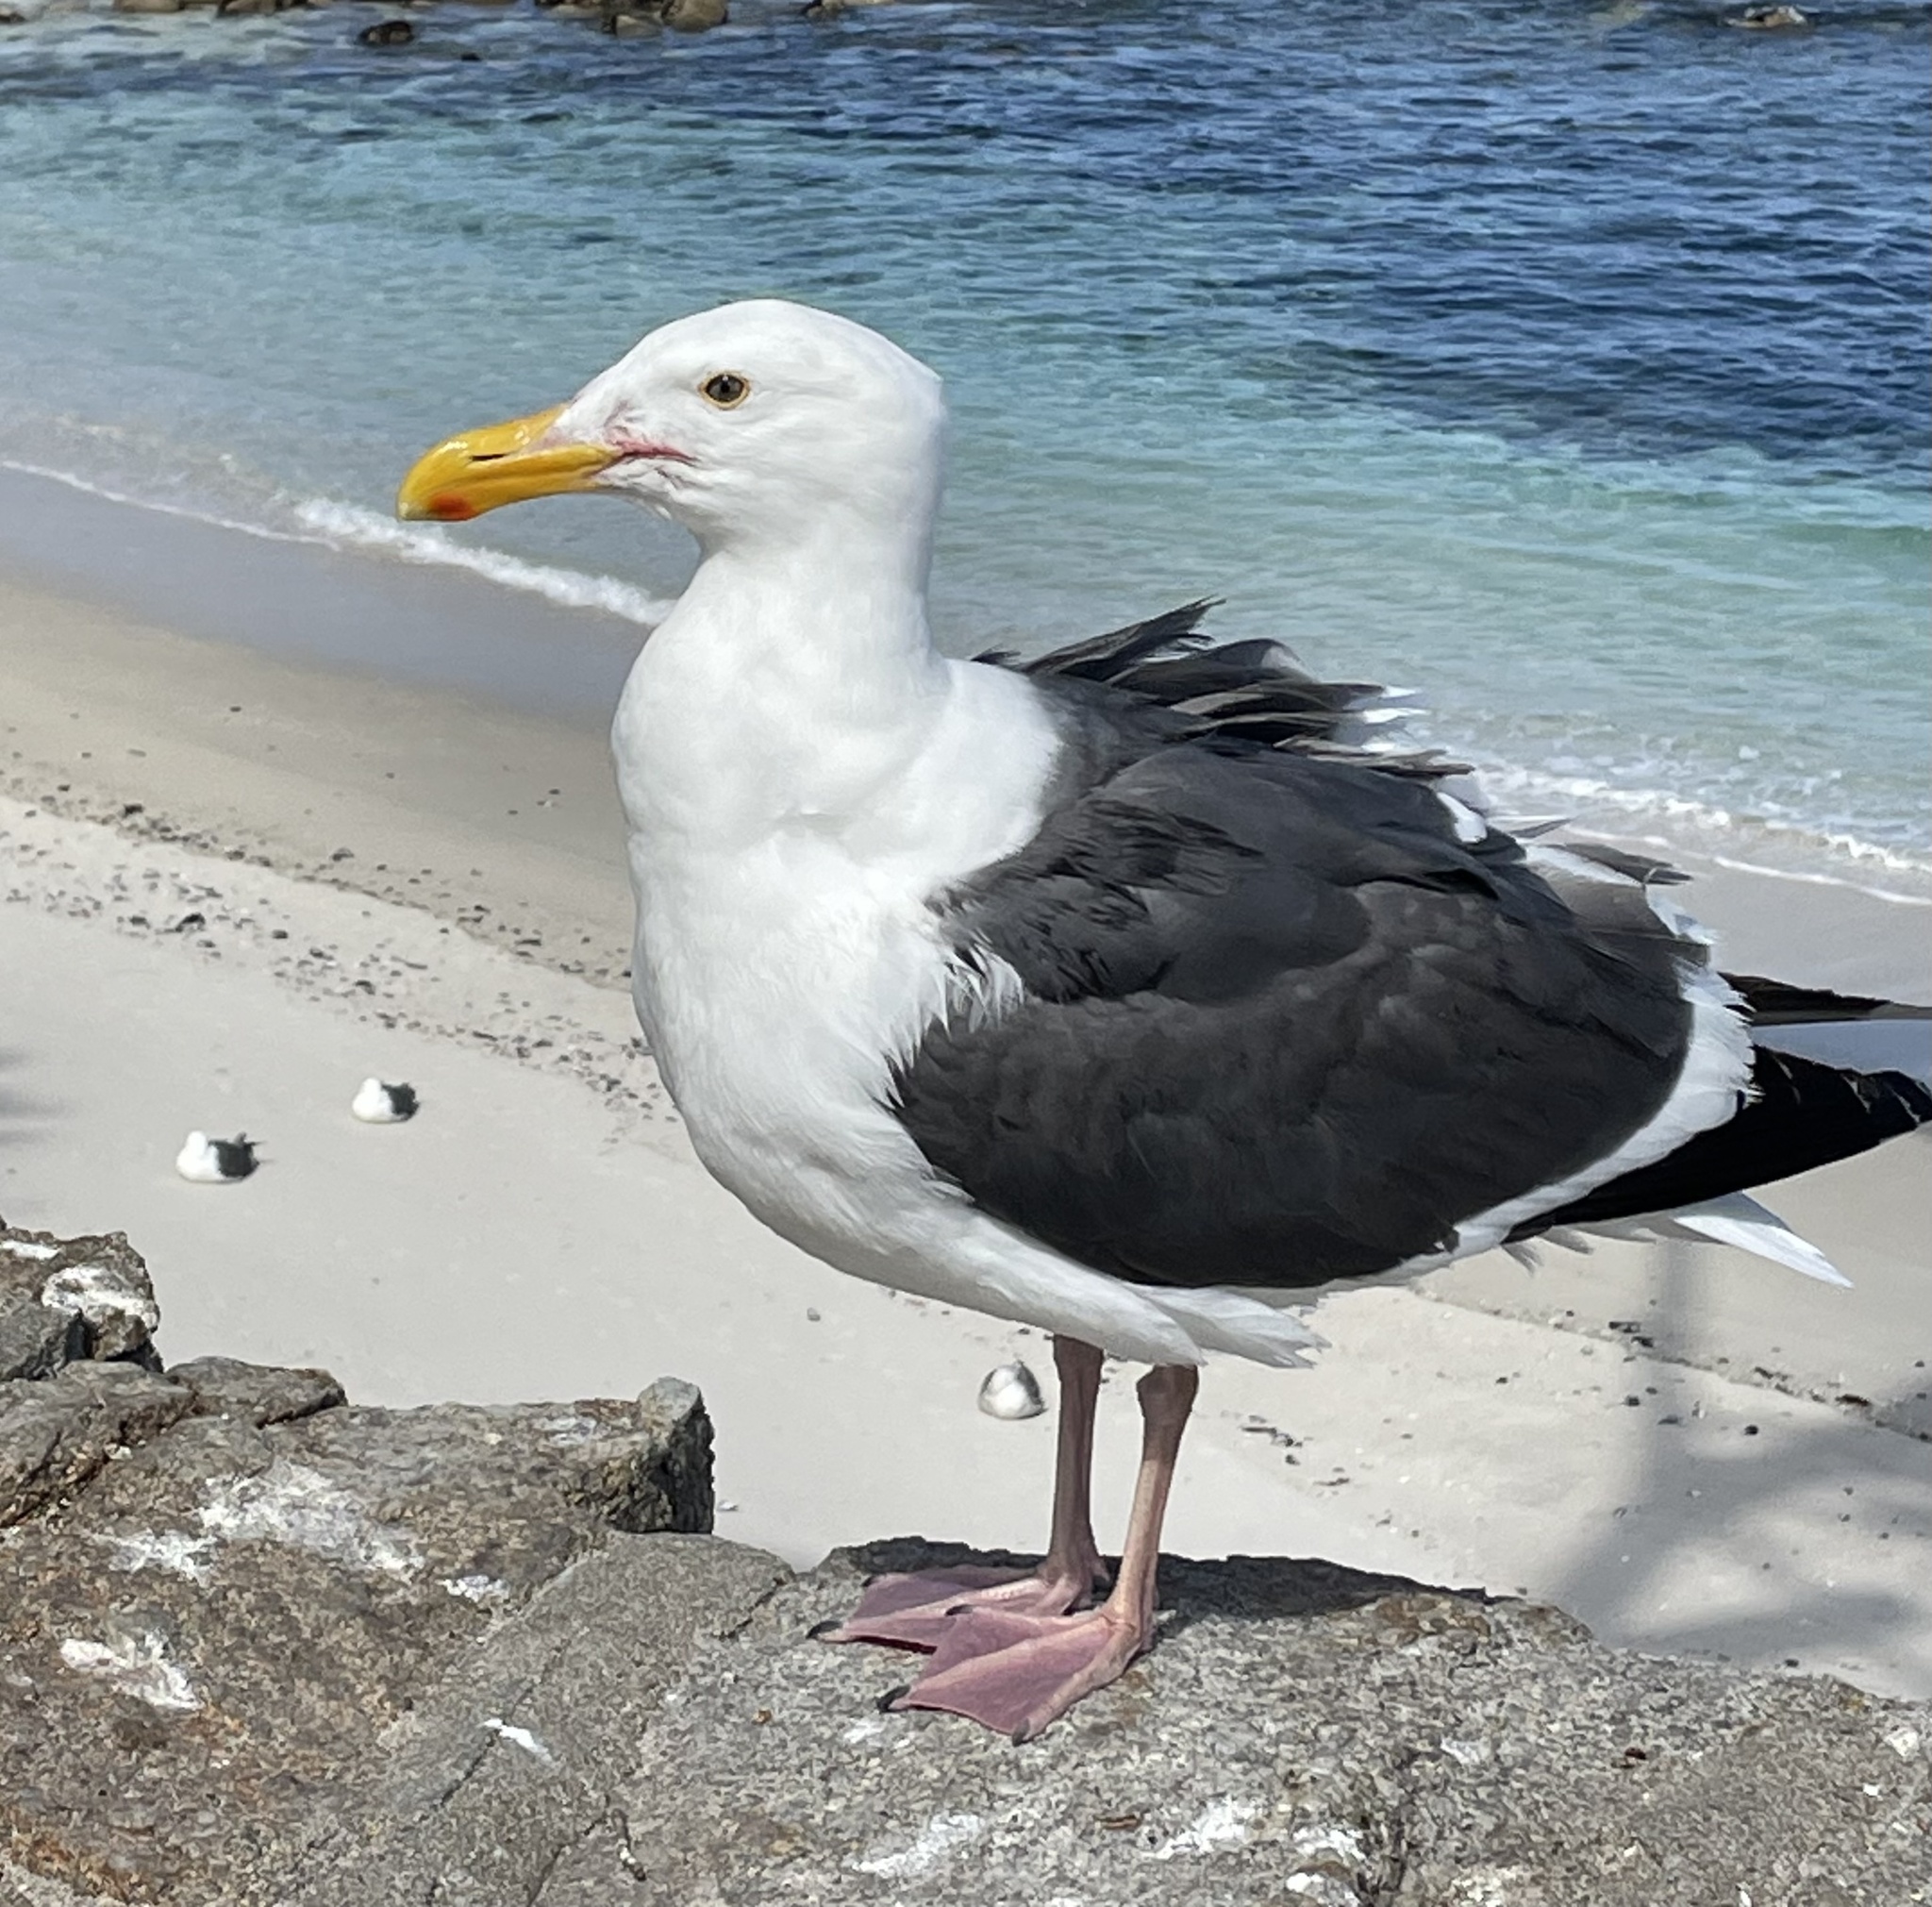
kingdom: Animalia
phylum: Chordata
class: Aves
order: Charadriiformes
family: Laridae
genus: Larus
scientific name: Larus occidentalis
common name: Western gull
